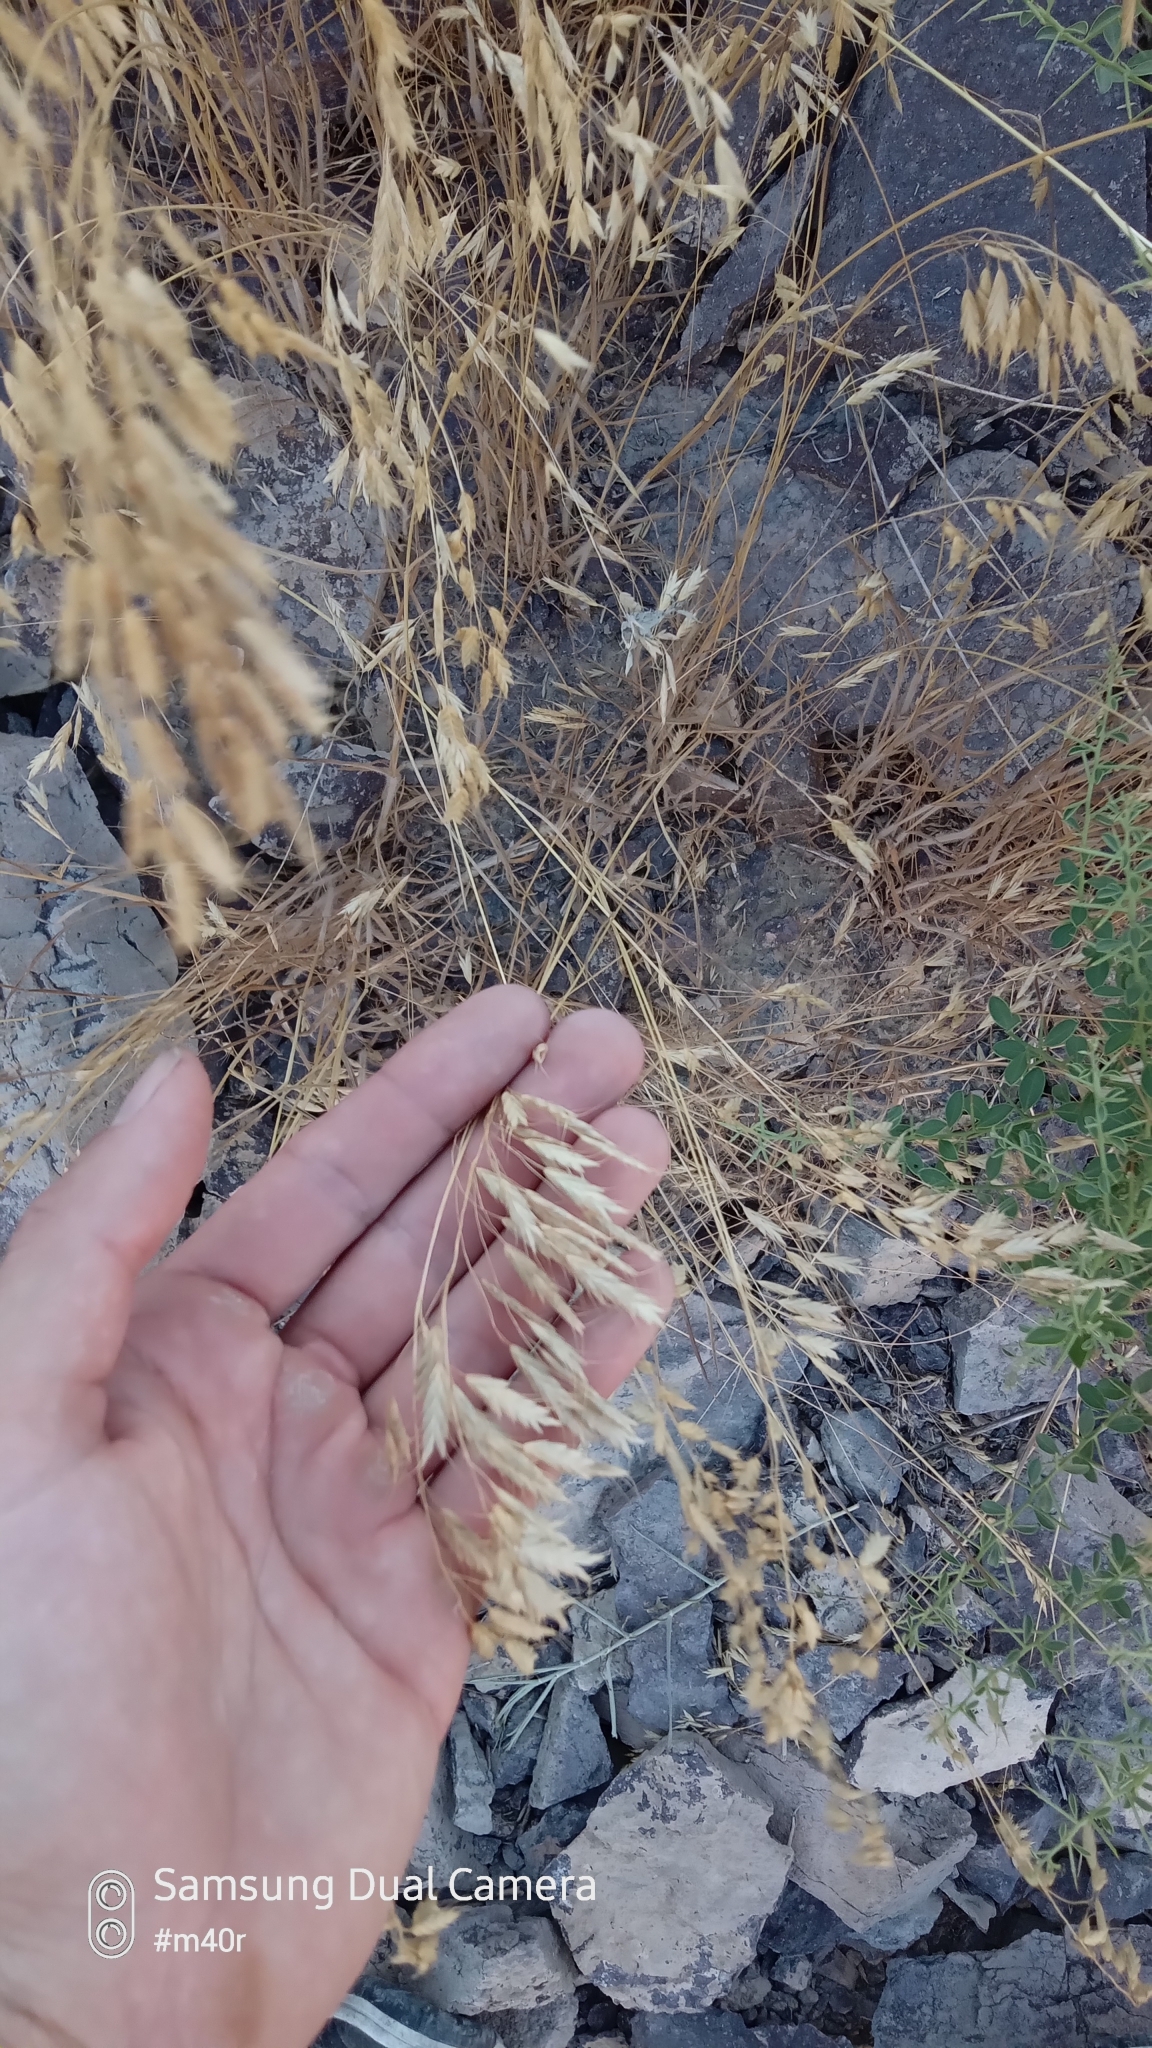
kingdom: Plantae
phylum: Tracheophyta
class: Liliopsida
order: Poales
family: Poaceae
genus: Bromus
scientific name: Bromus tectorum
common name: Cheatgrass
